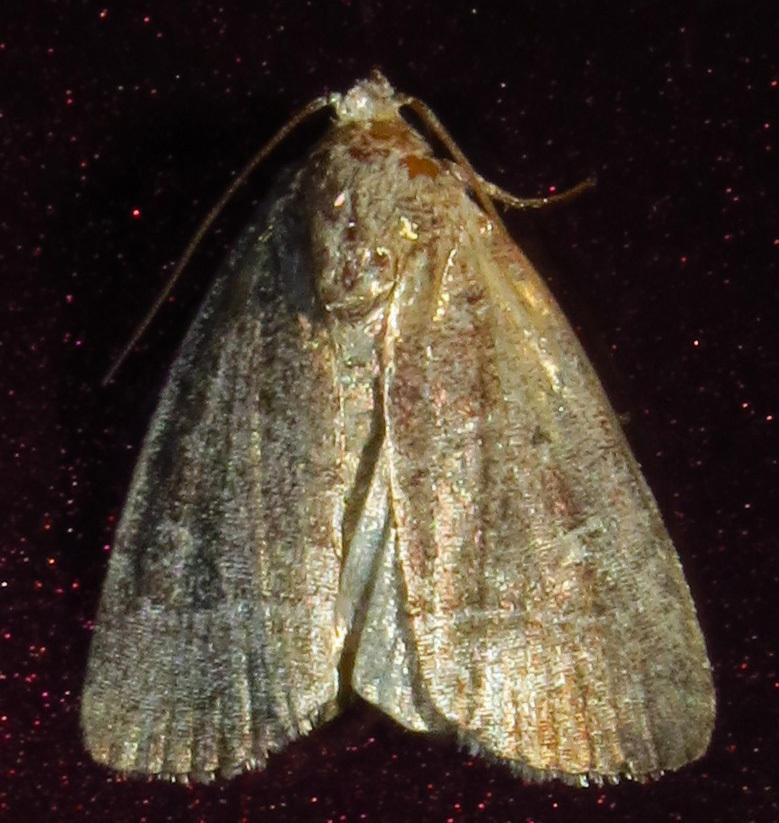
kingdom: Animalia
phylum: Arthropoda
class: Insecta
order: Lepidoptera
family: Noctuidae
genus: Elaphria
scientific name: Elaphria grata
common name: Grateful midget moth
